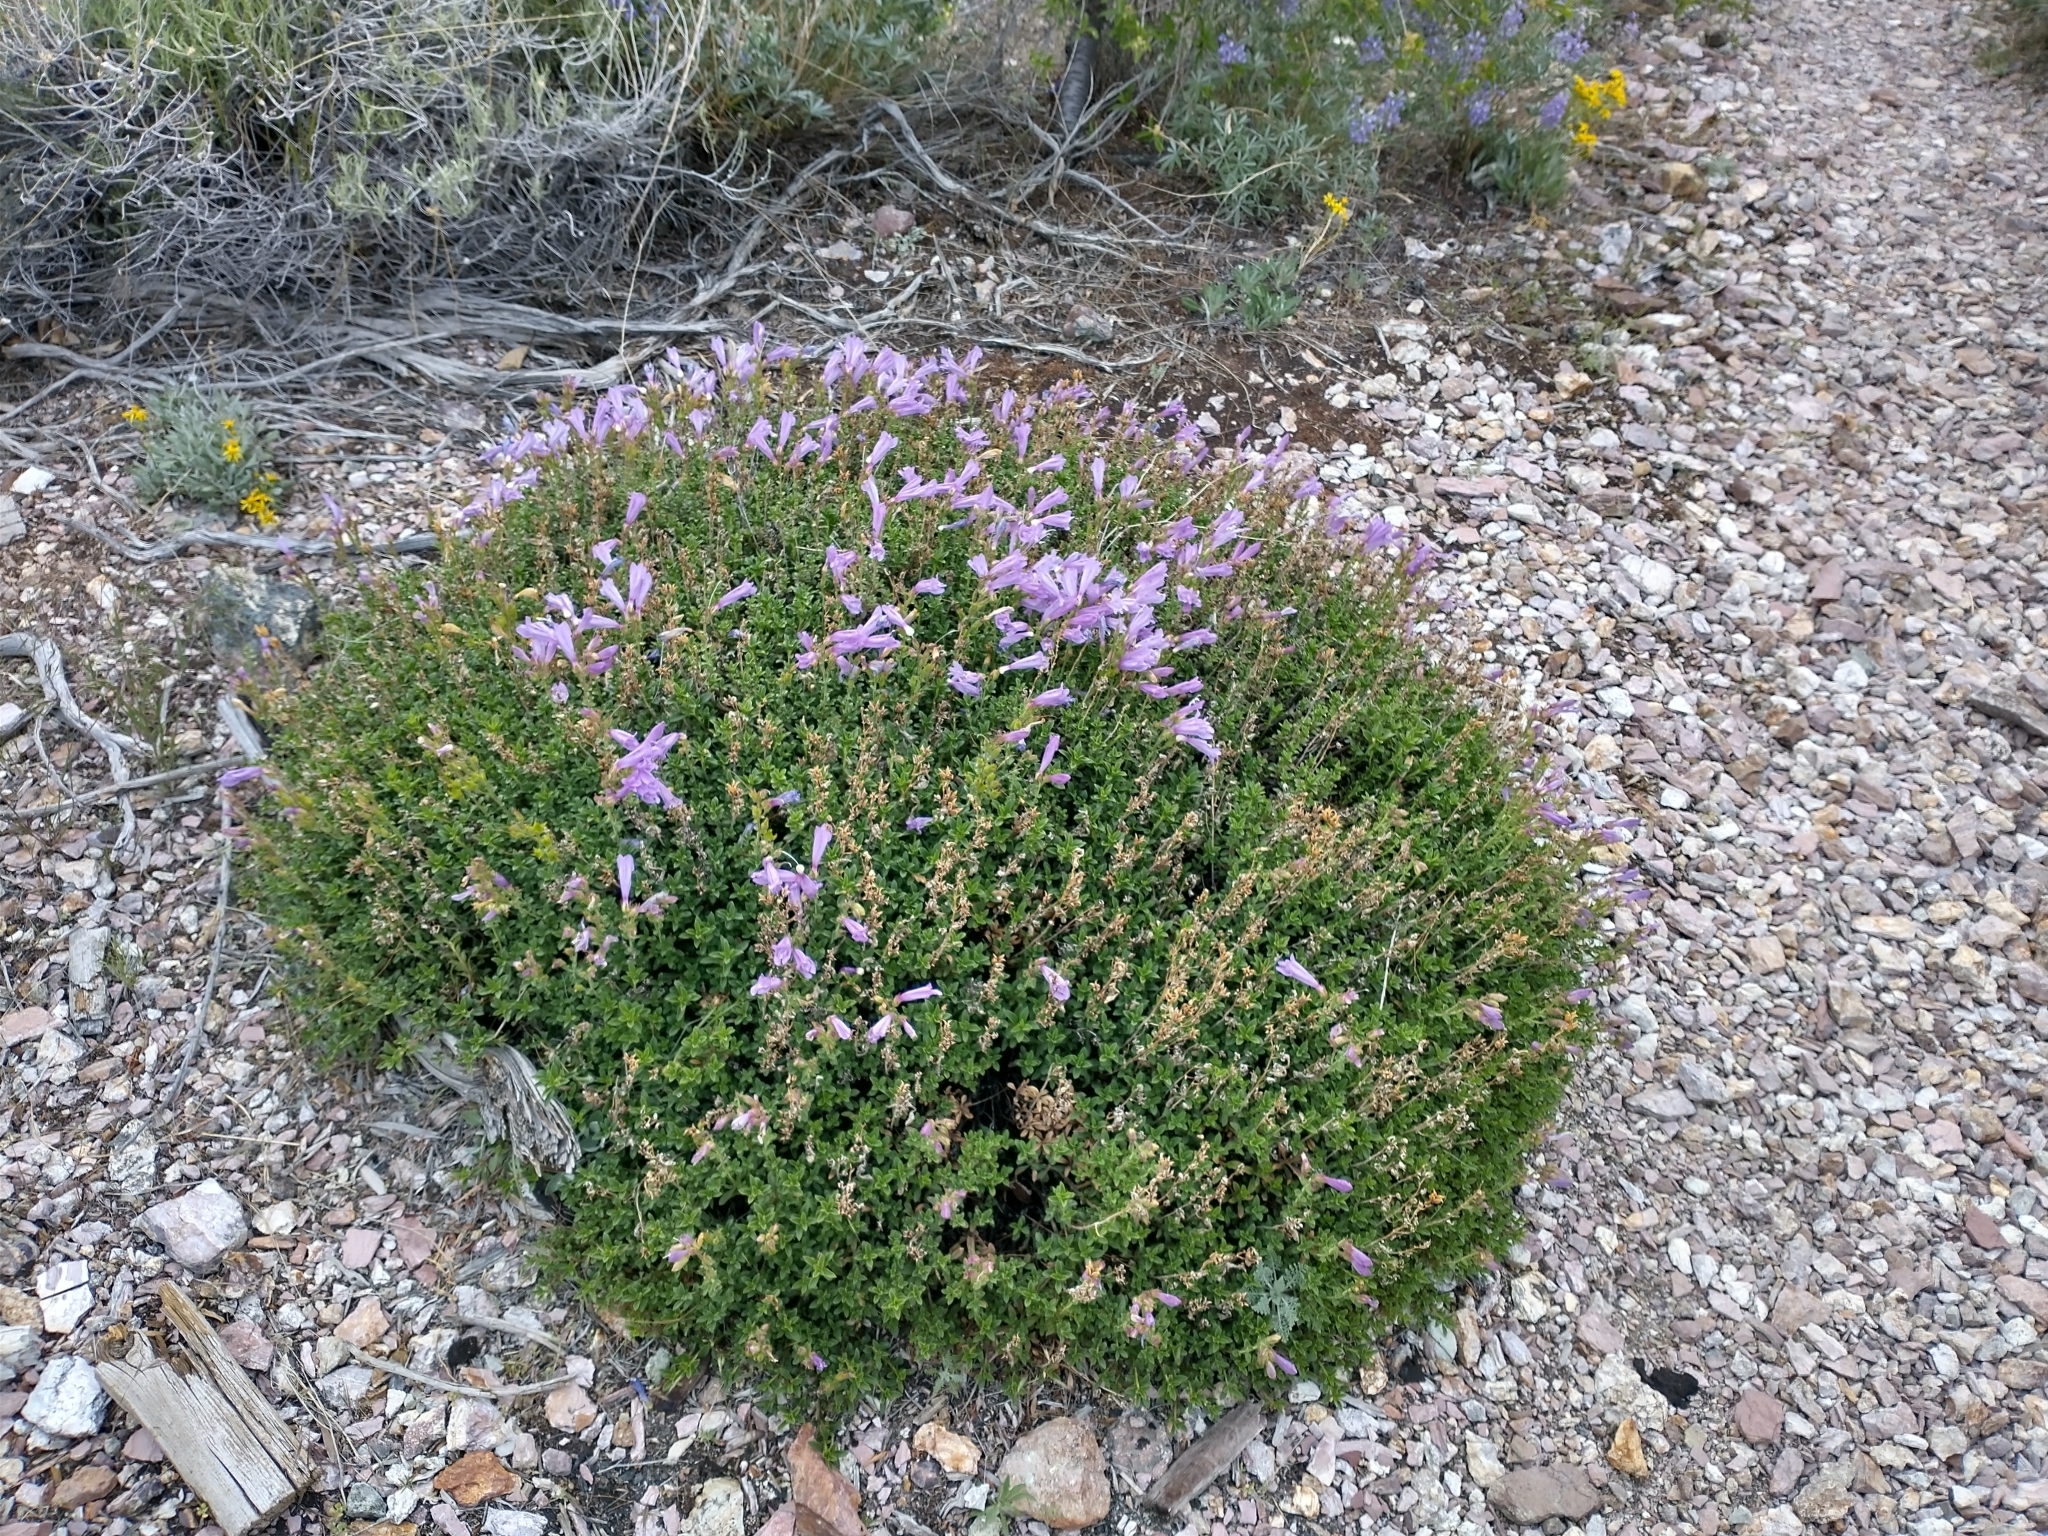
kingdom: Plantae
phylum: Tracheophyta
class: Magnoliopsida
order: Lamiales
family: Plantaginaceae
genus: Penstemon
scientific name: Penstemon davidsonii
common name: Davidson's penstemon
